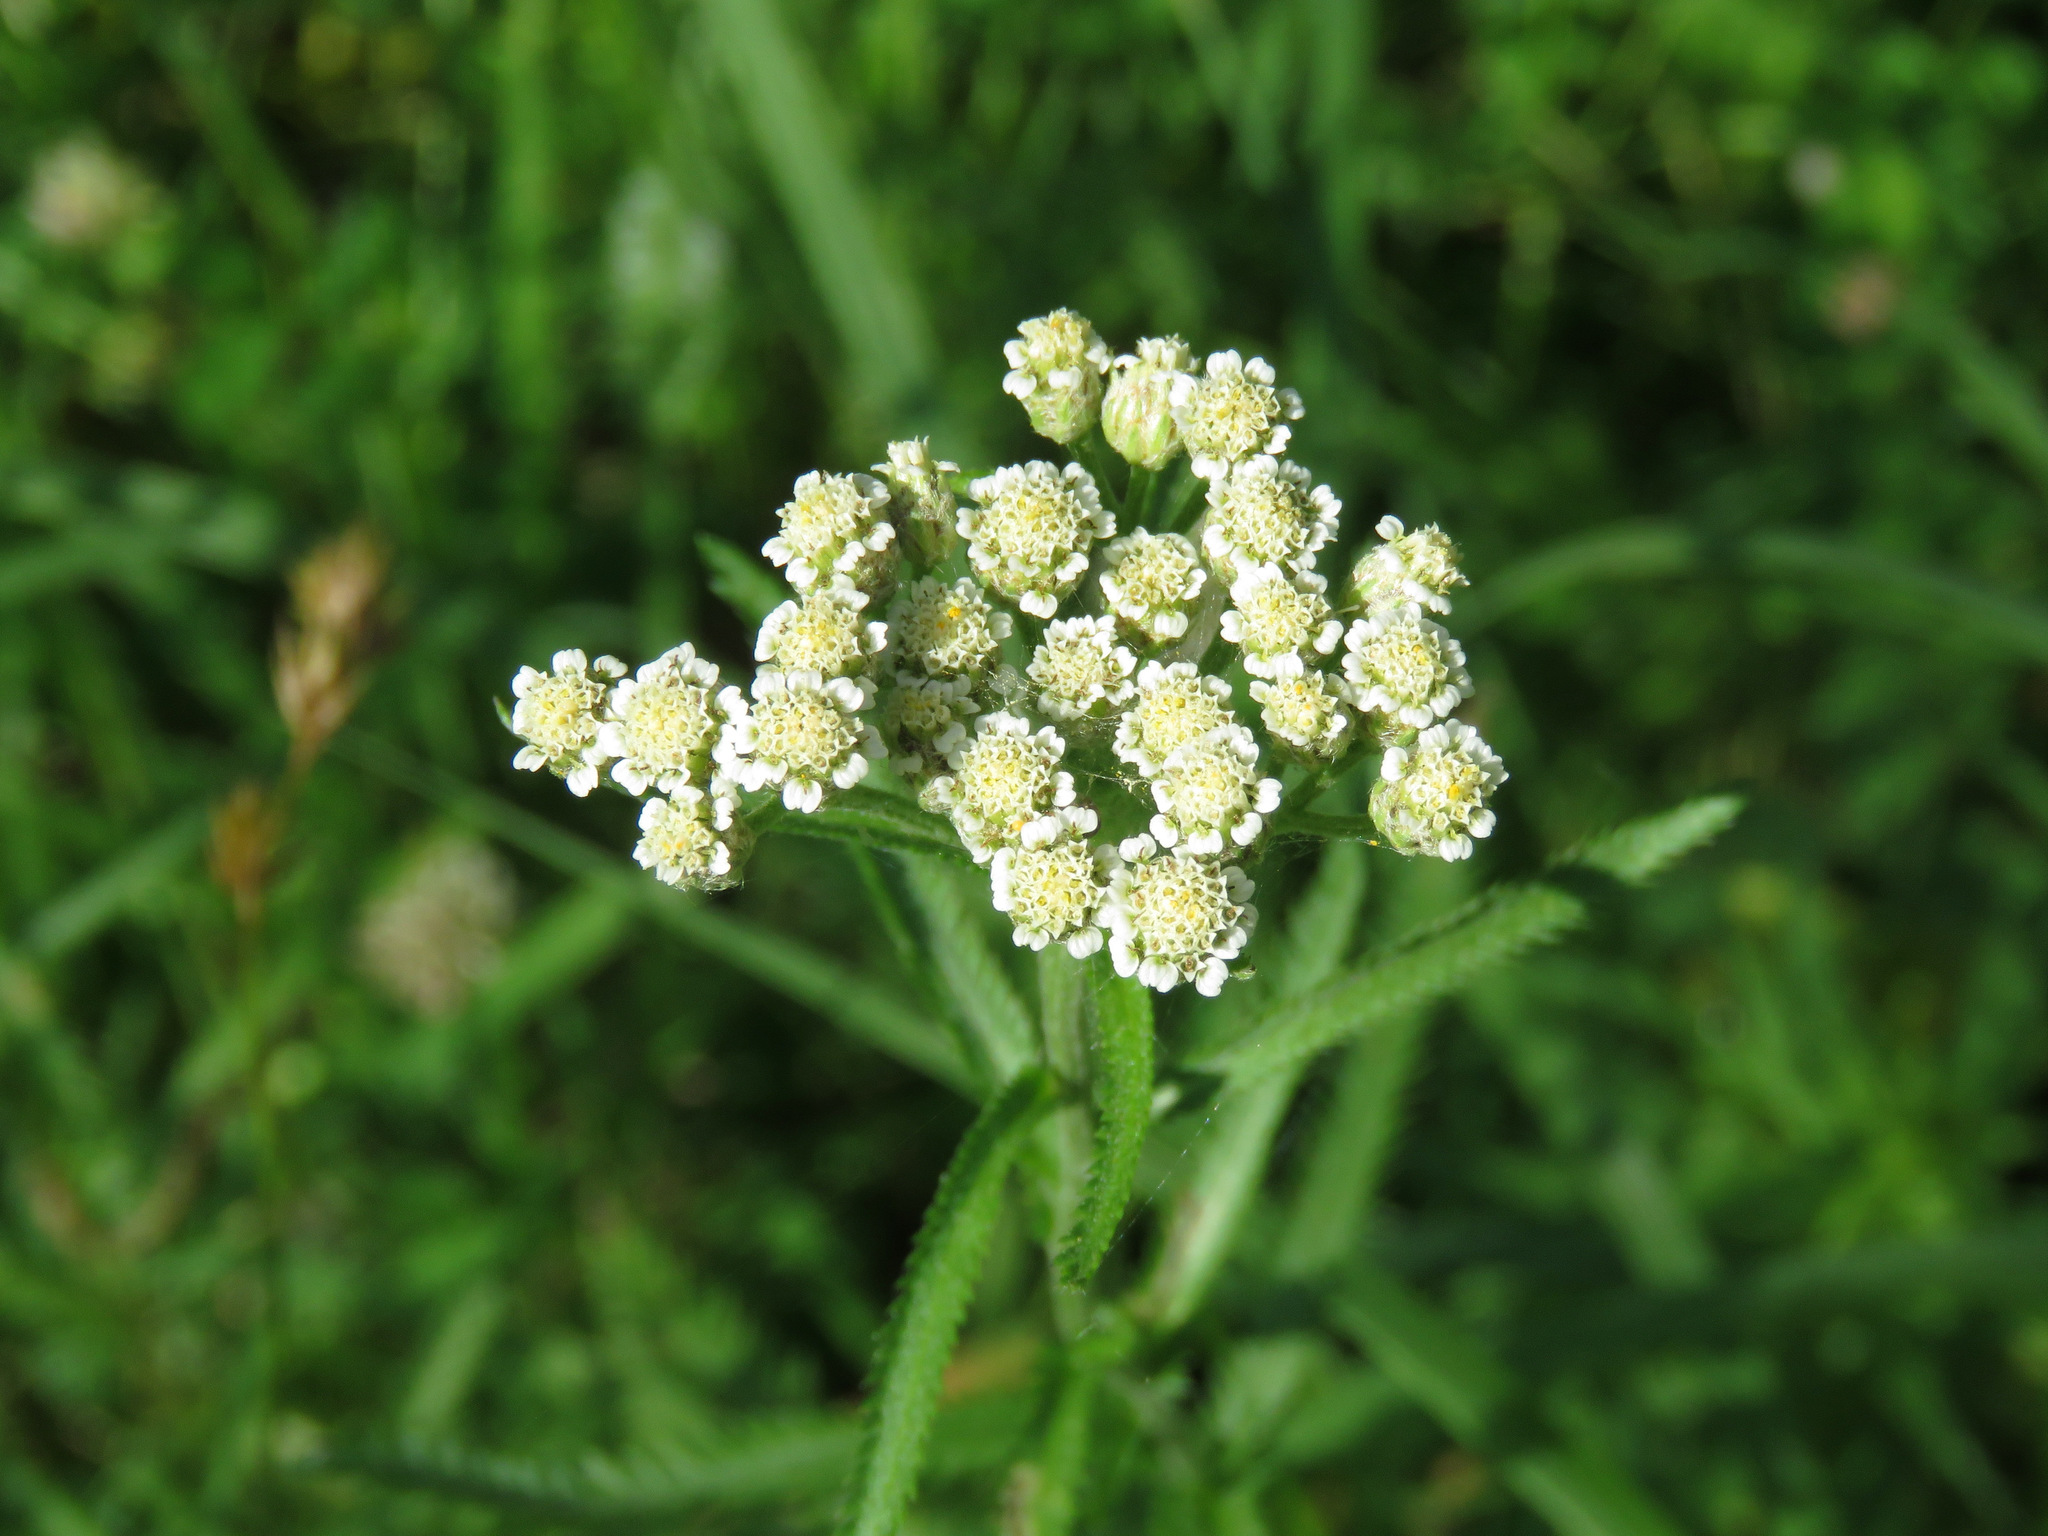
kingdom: Plantae
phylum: Tracheophyta
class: Magnoliopsida
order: Asterales
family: Asteraceae
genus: Achillea
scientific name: Achillea alpina
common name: Siberian yarrow
